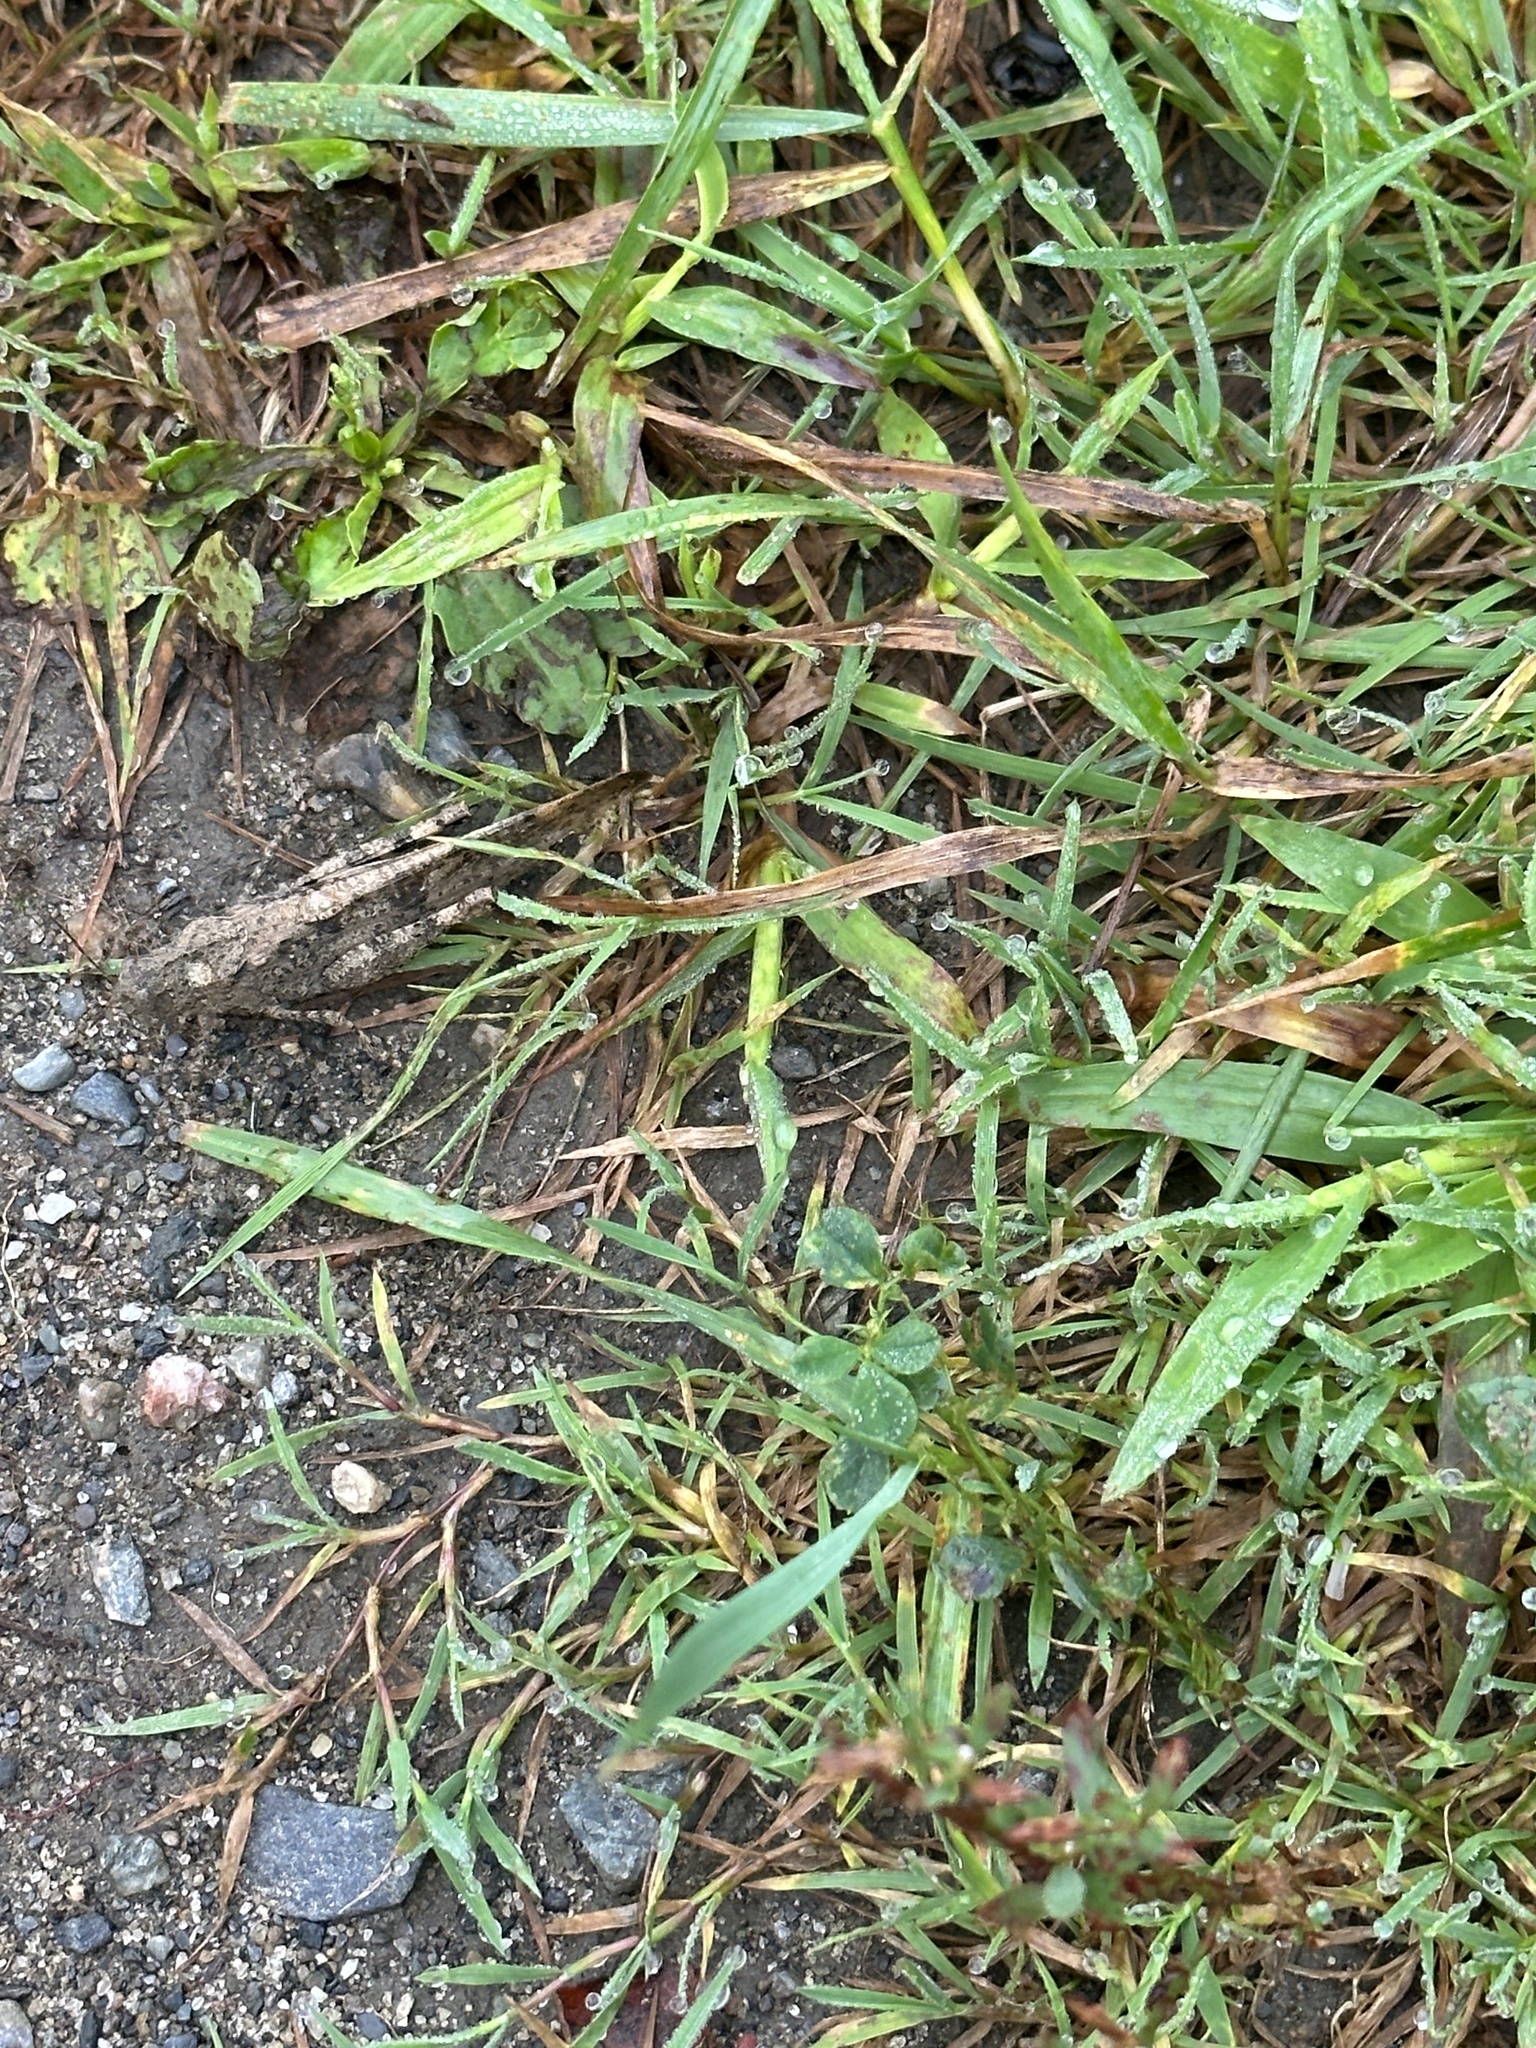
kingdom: Animalia
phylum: Arthropoda
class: Insecta
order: Orthoptera
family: Acrididae
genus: Dissosteira
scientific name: Dissosteira carolina
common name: Carolina grasshopper
